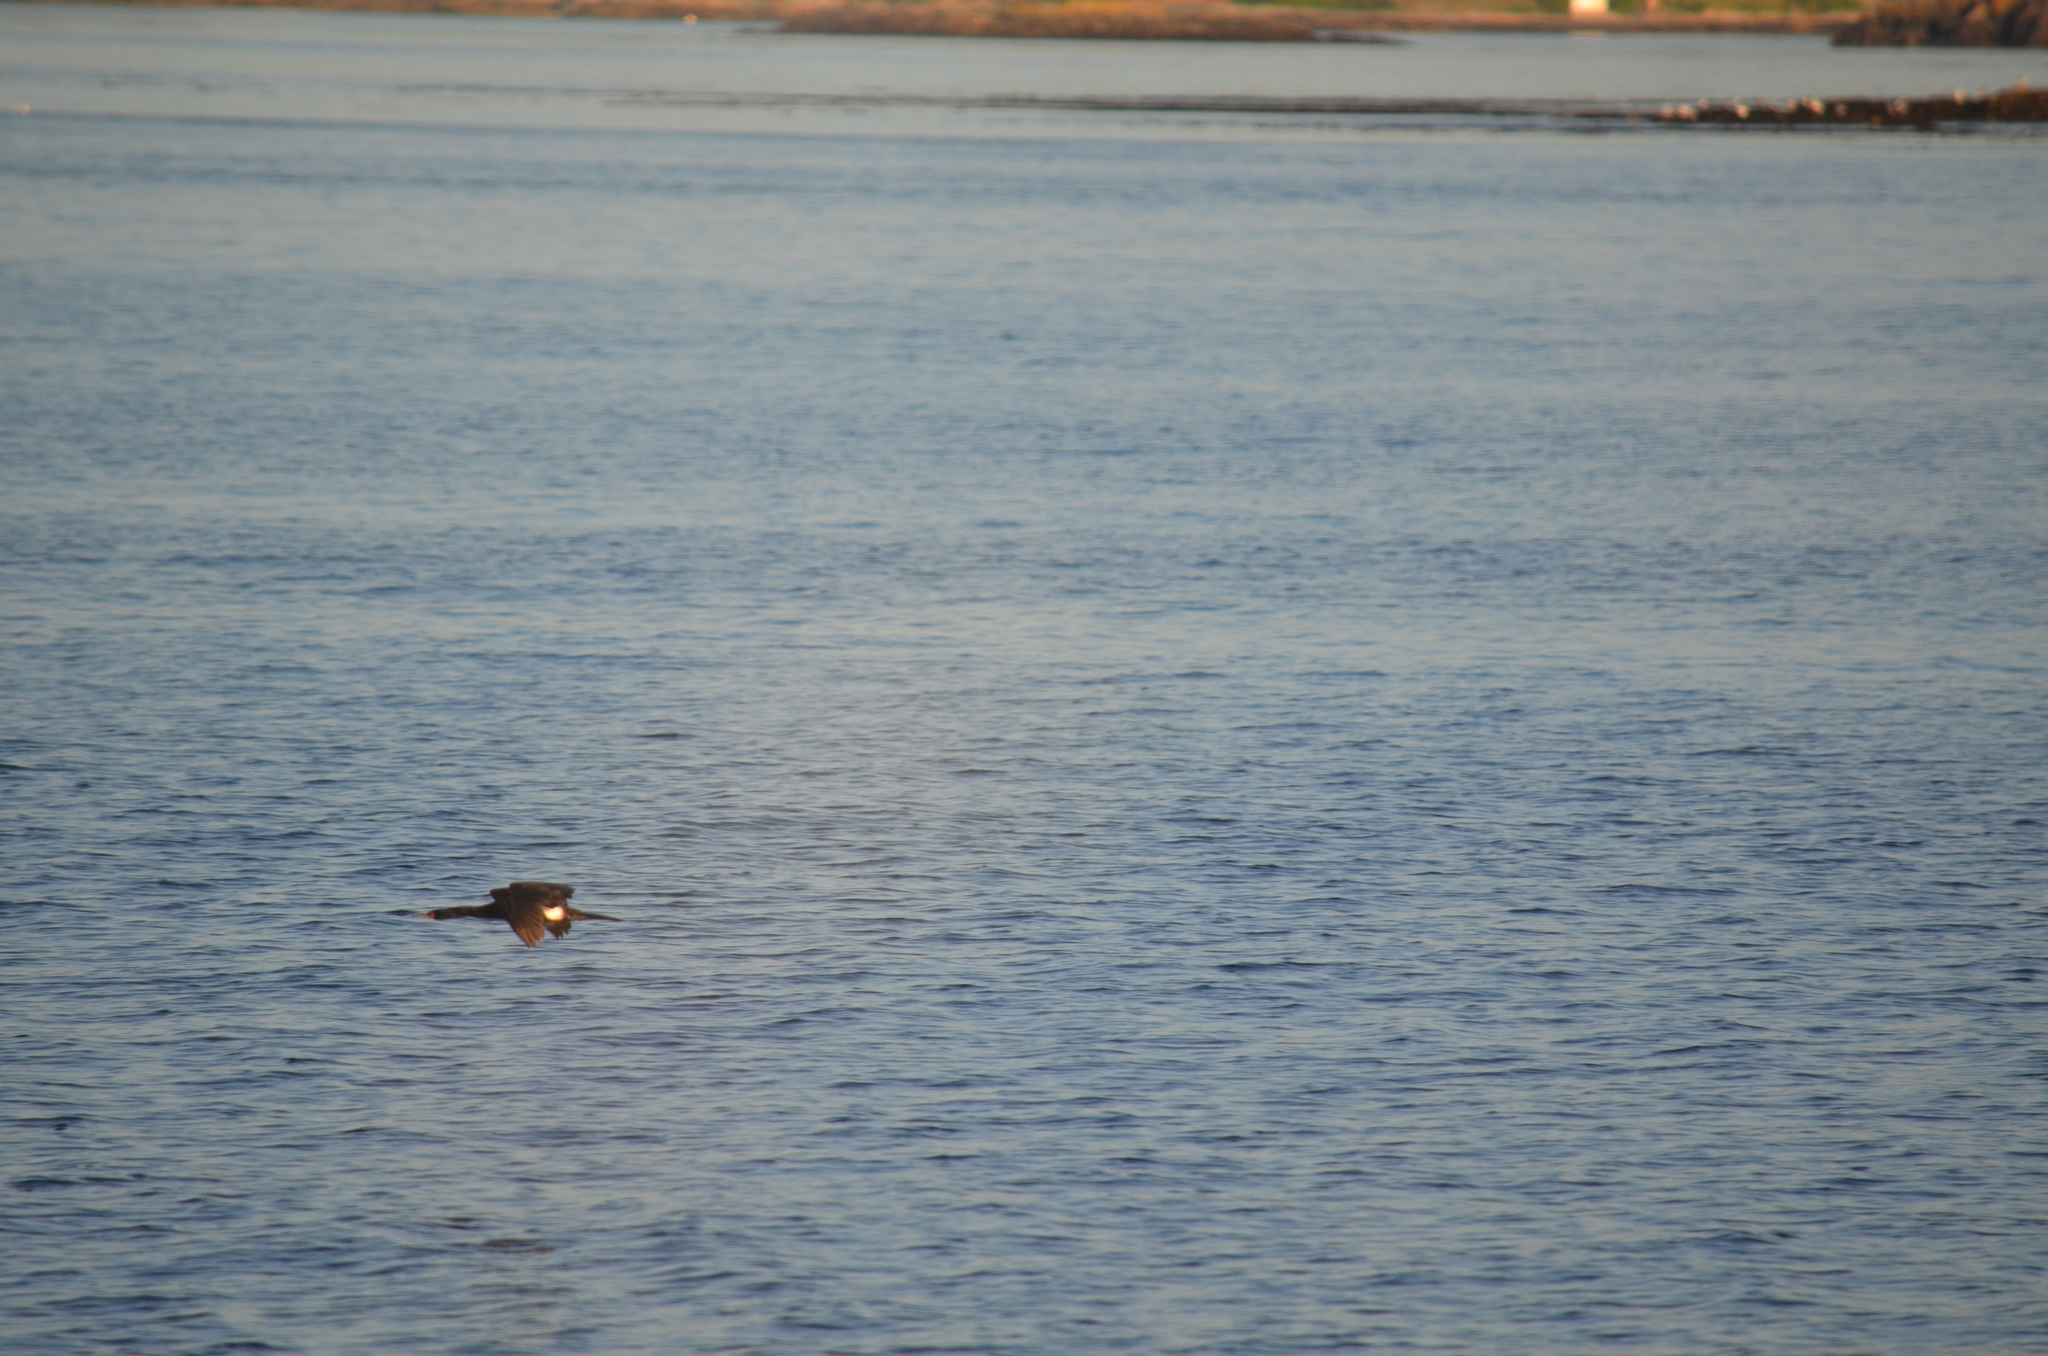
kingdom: Animalia
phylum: Chordata
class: Aves
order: Suliformes
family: Phalacrocoracidae
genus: Phalacrocorax
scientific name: Phalacrocorax pelagicus
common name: Pelagic cormorant
